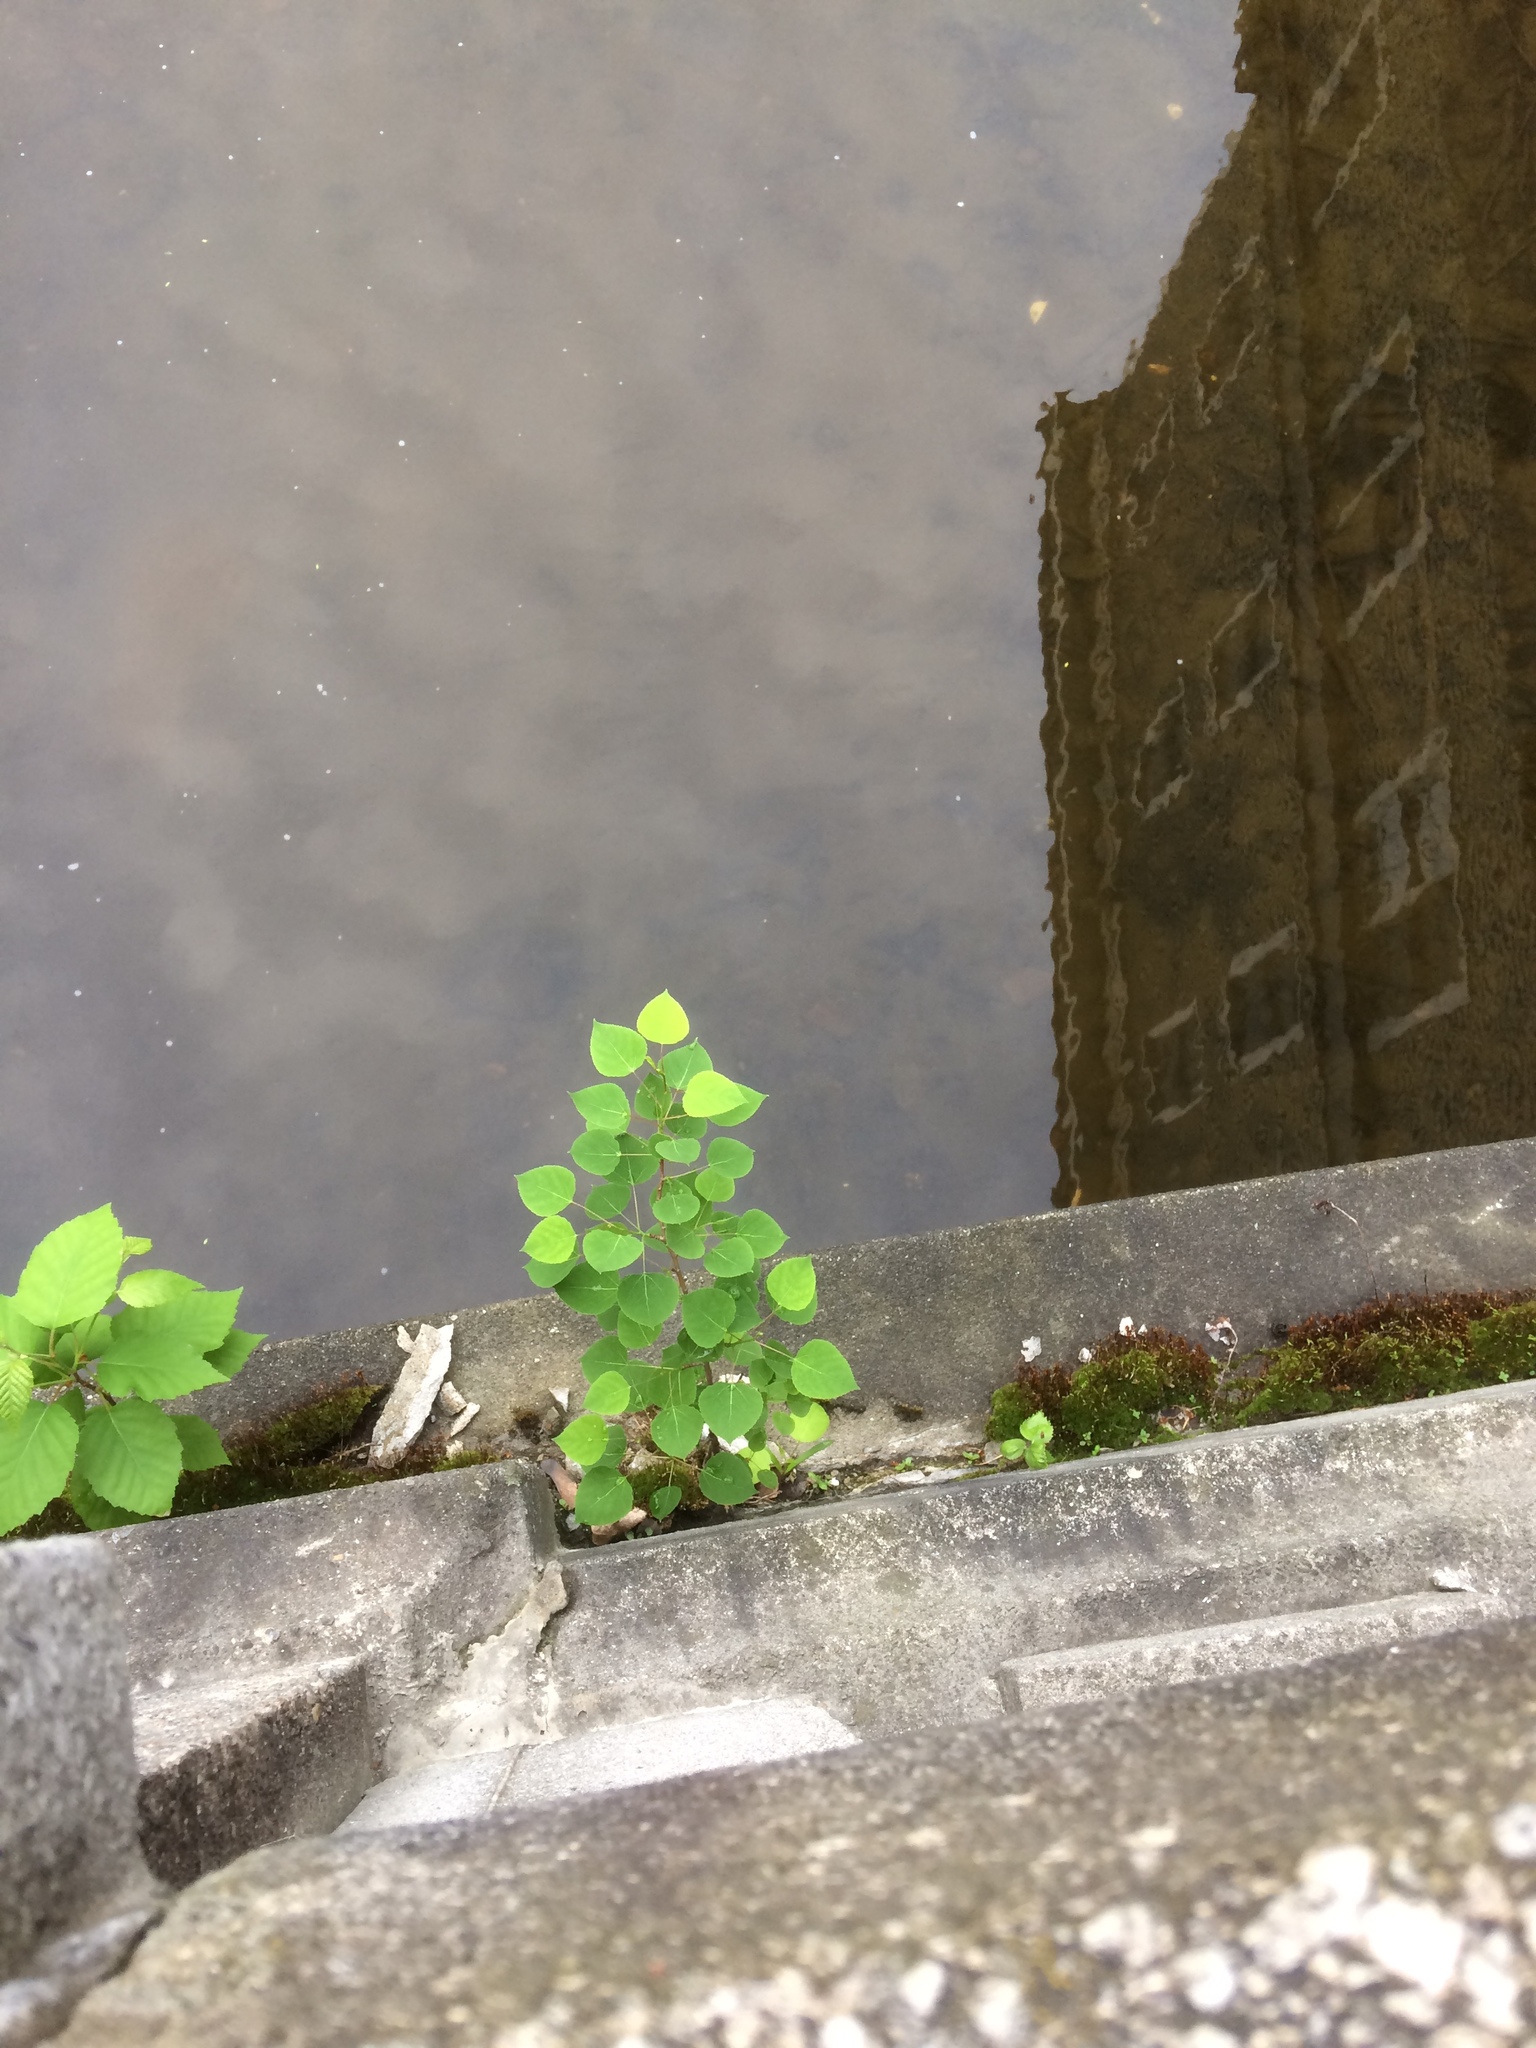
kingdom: Plantae
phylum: Tracheophyta
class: Magnoliopsida
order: Malpighiales
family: Salicaceae
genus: Populus
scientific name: Populus tremuloides
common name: Quaking aspen
